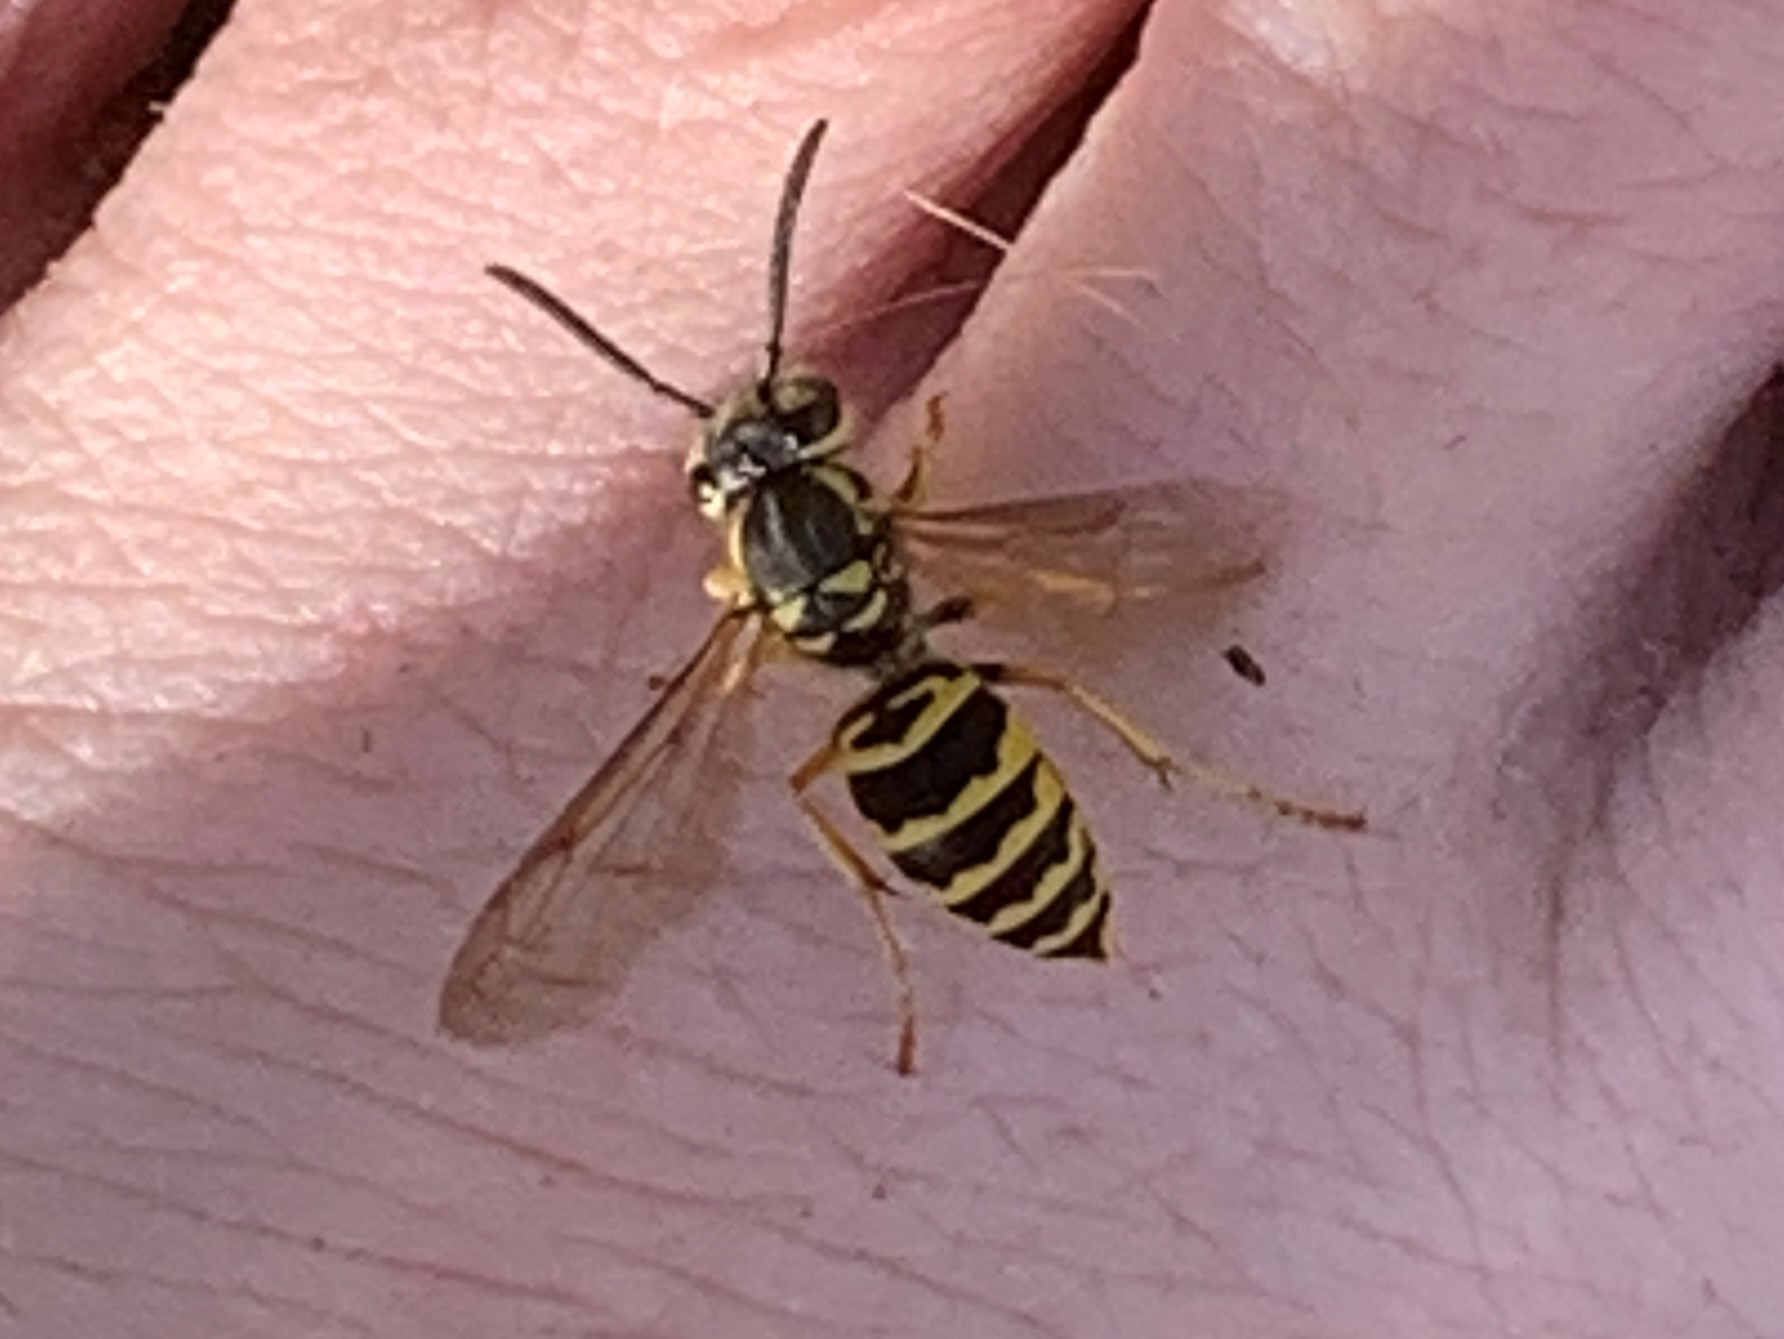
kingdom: Animalia
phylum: Arthropoda
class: Insecta
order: Hymenoptera
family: Vespidae
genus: Vespula
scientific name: Vespula maculifrons
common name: Eastern yellowjacket
